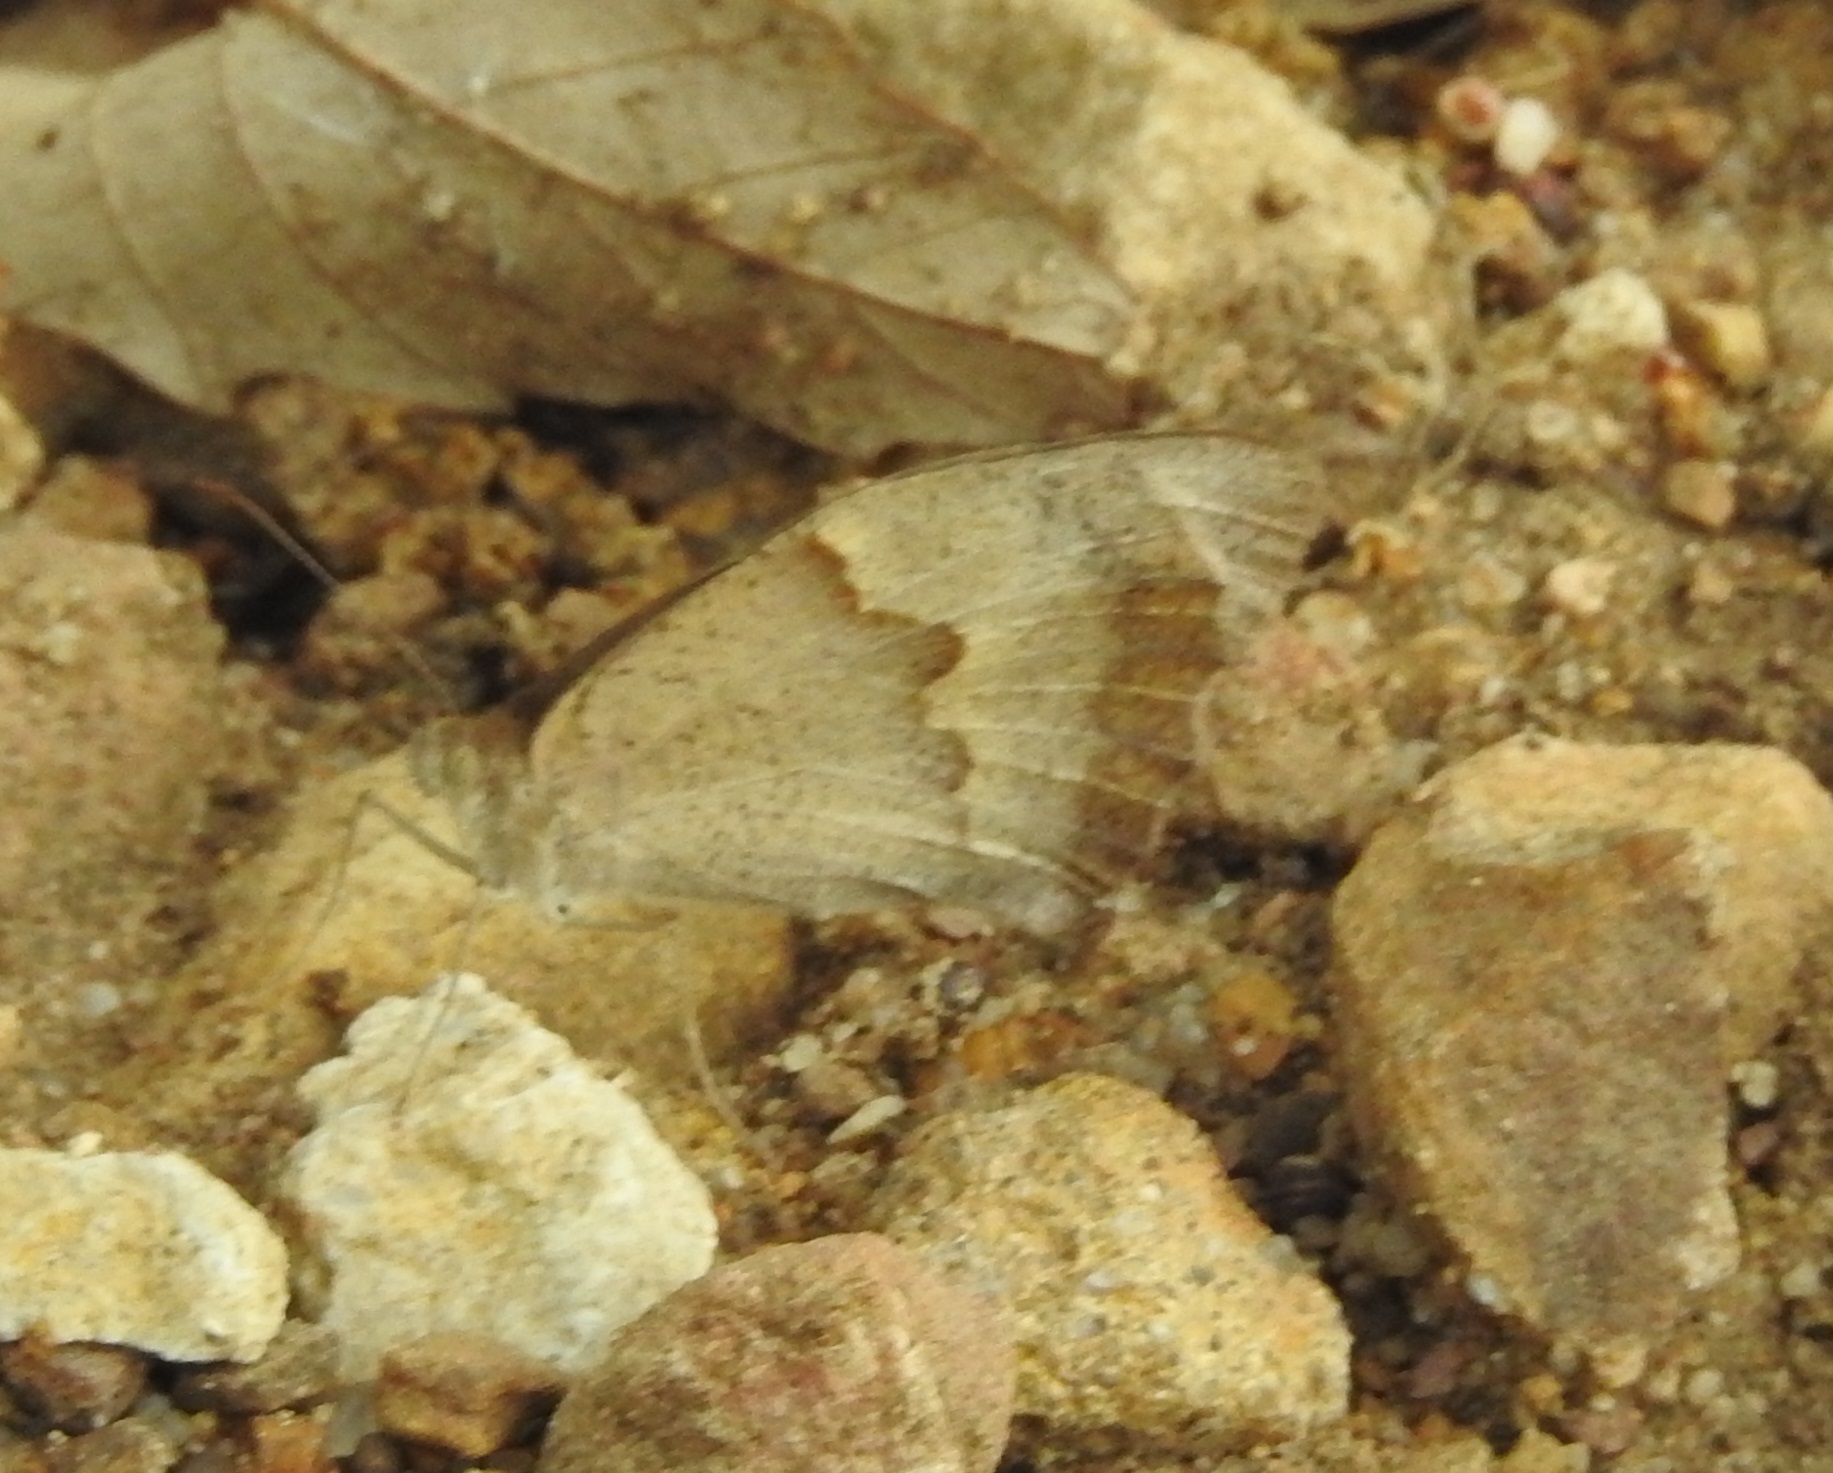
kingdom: Animalia
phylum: Arthropoda
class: Insecta
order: Lepidoptera
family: Nymphalidae
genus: Maniola
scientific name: Maniola jurtina
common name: Meadow brown
